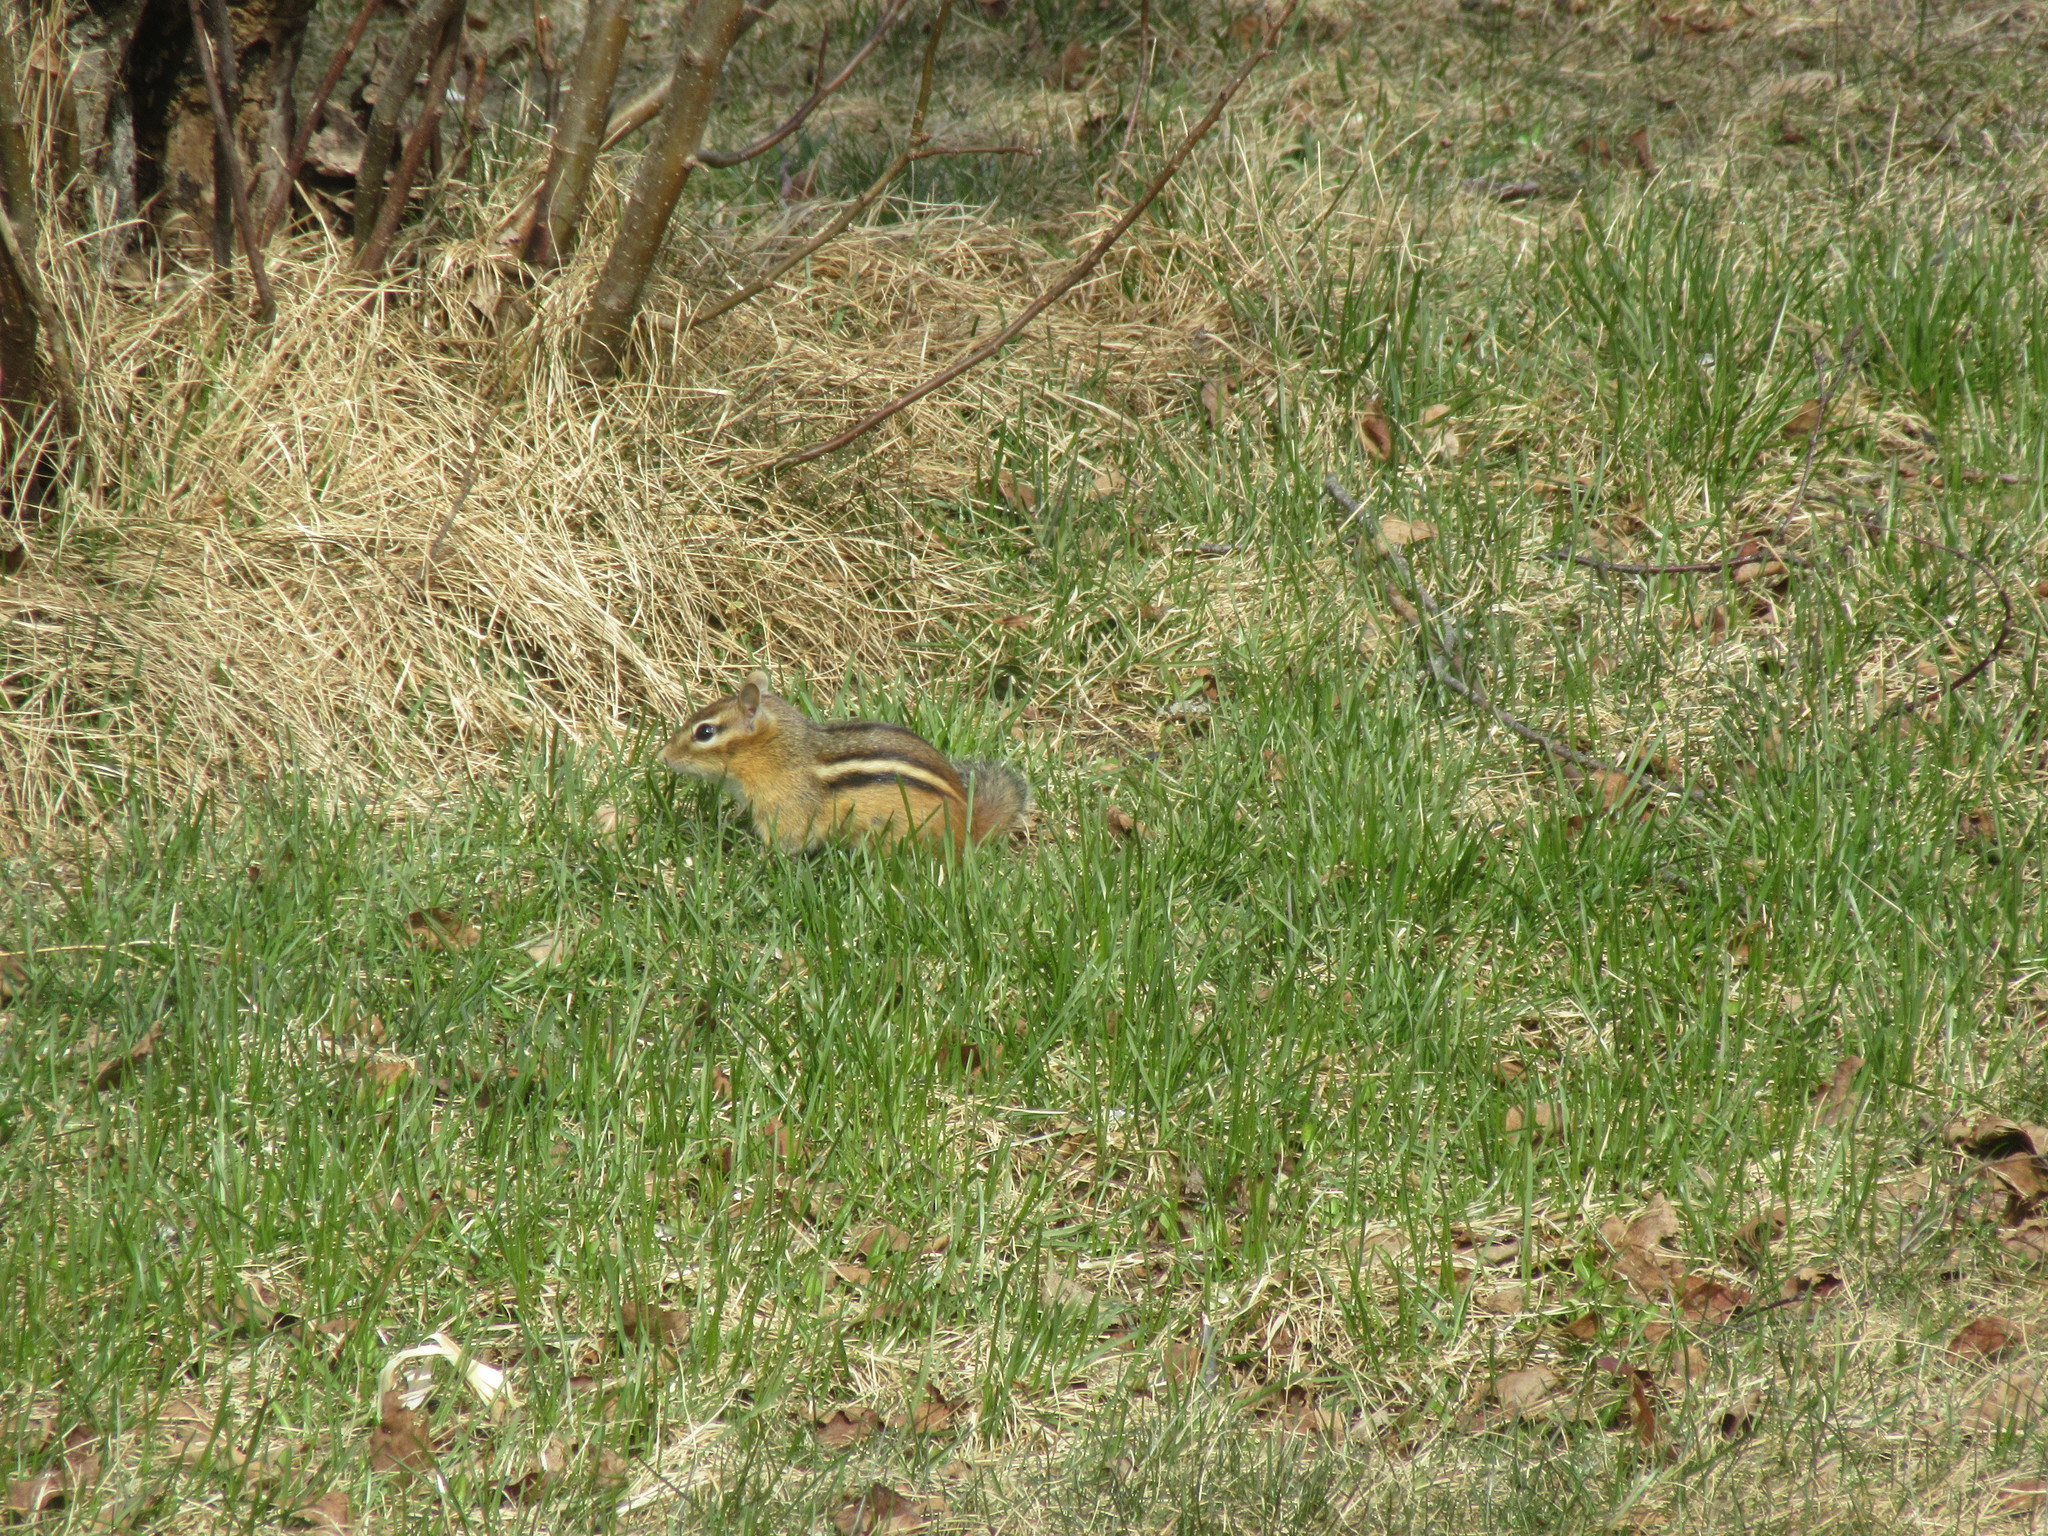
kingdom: Animalia
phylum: Chordata
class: Mammalia
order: Rodentia
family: Sciuridae
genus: Tamias
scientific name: Tamias striatus
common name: Eastern chipmunk
